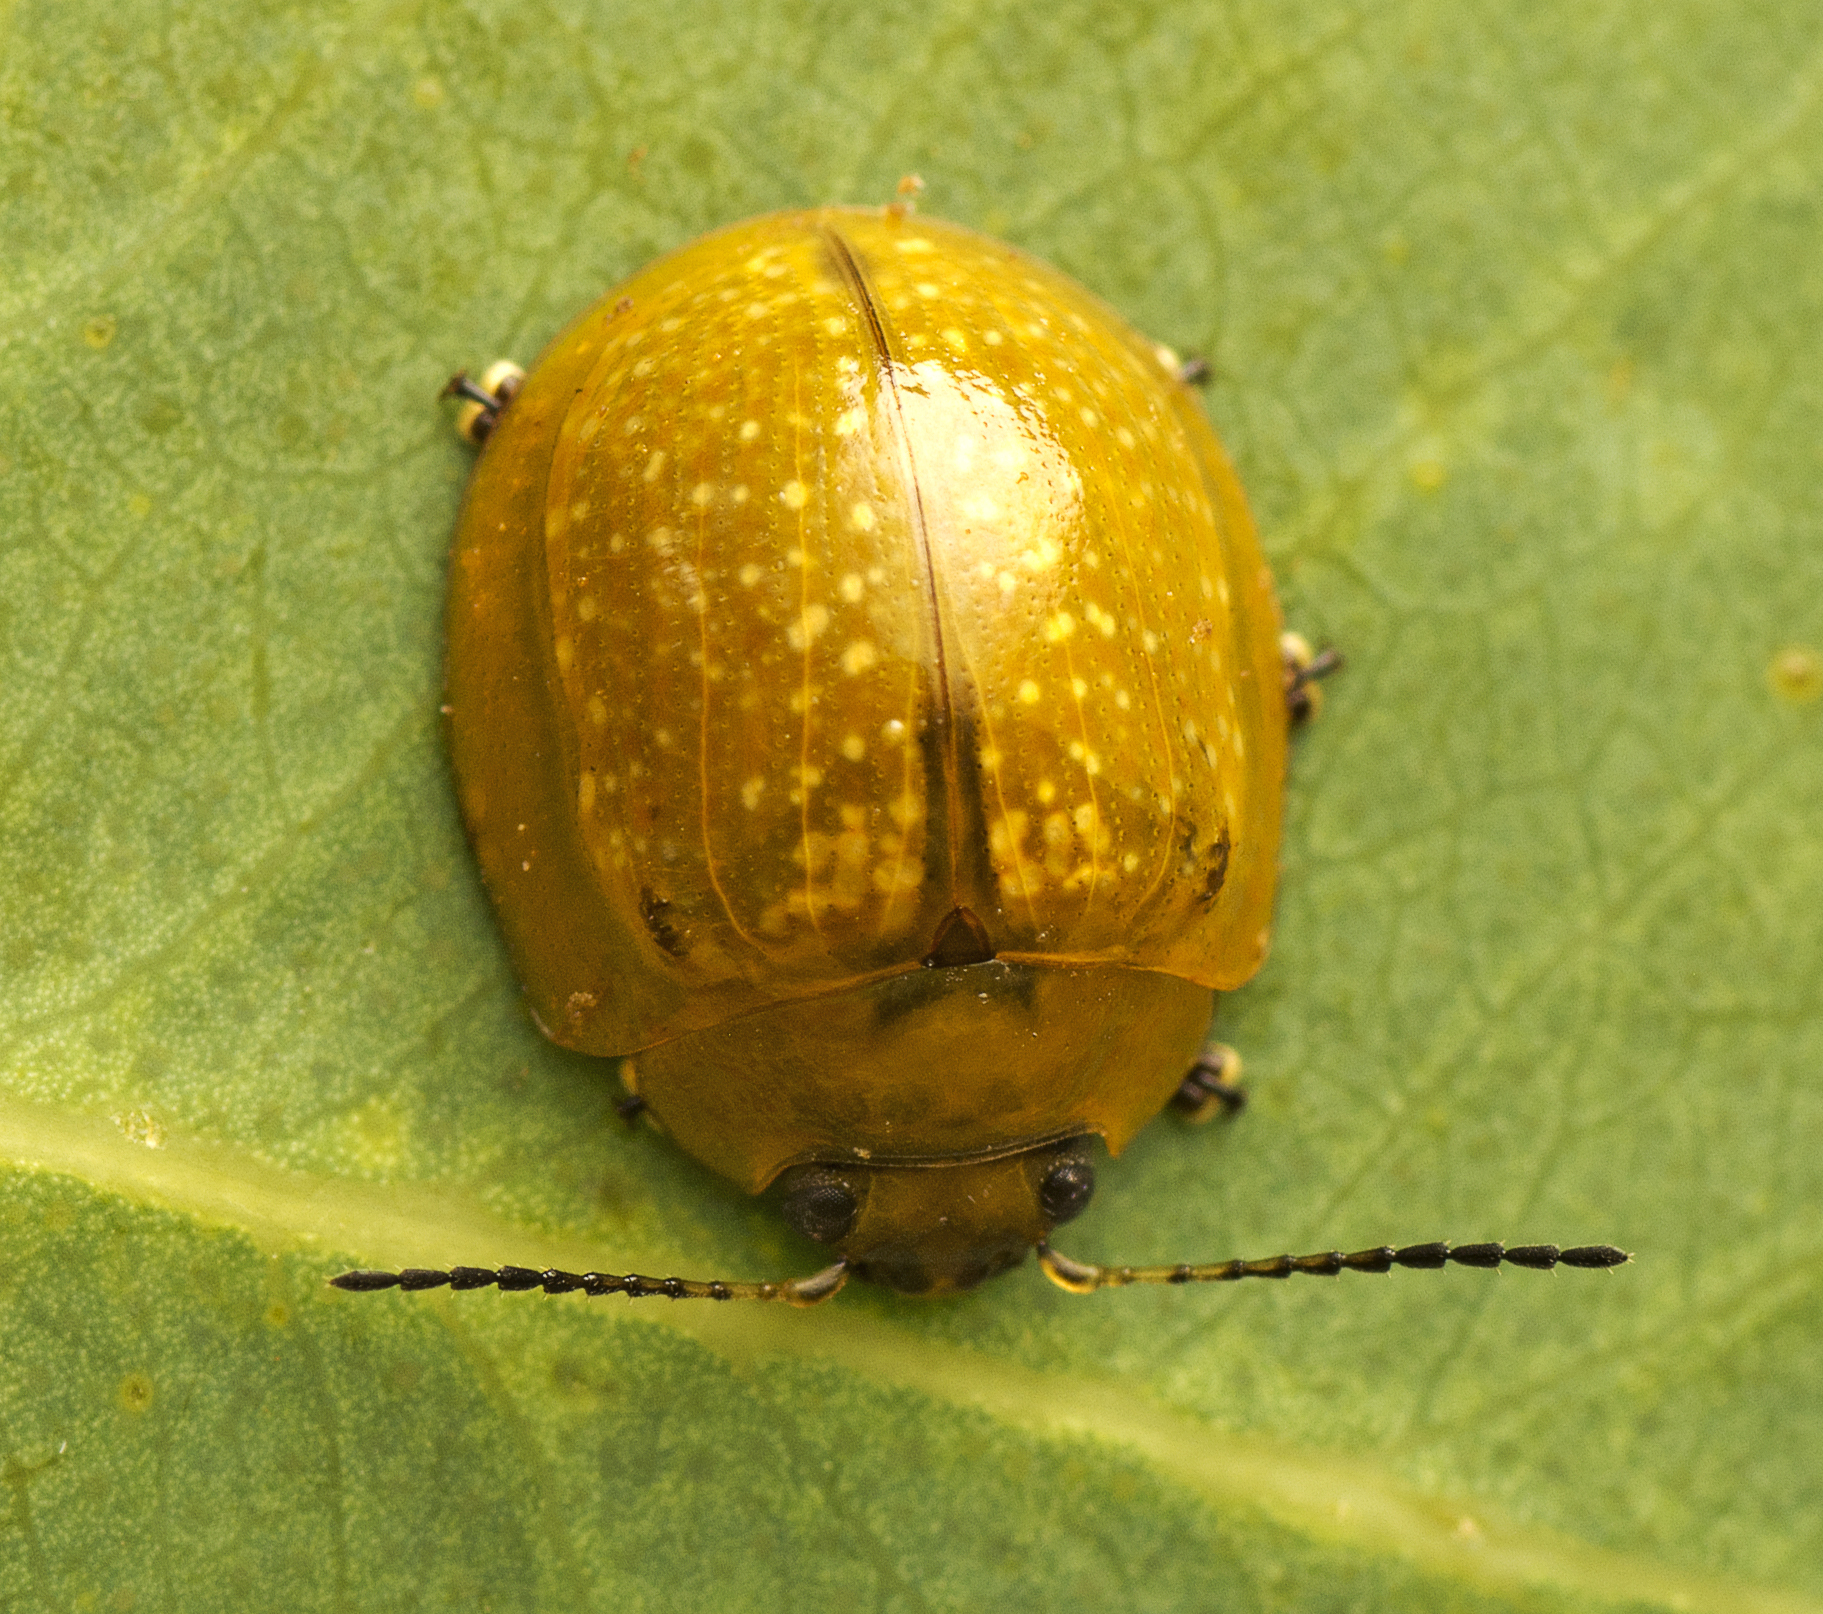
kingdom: Animalia
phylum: Arthropoda
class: Insecta
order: Coleoptera
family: Chrysomelidae
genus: Paropsisterna
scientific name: Paropsisterna cloelia
